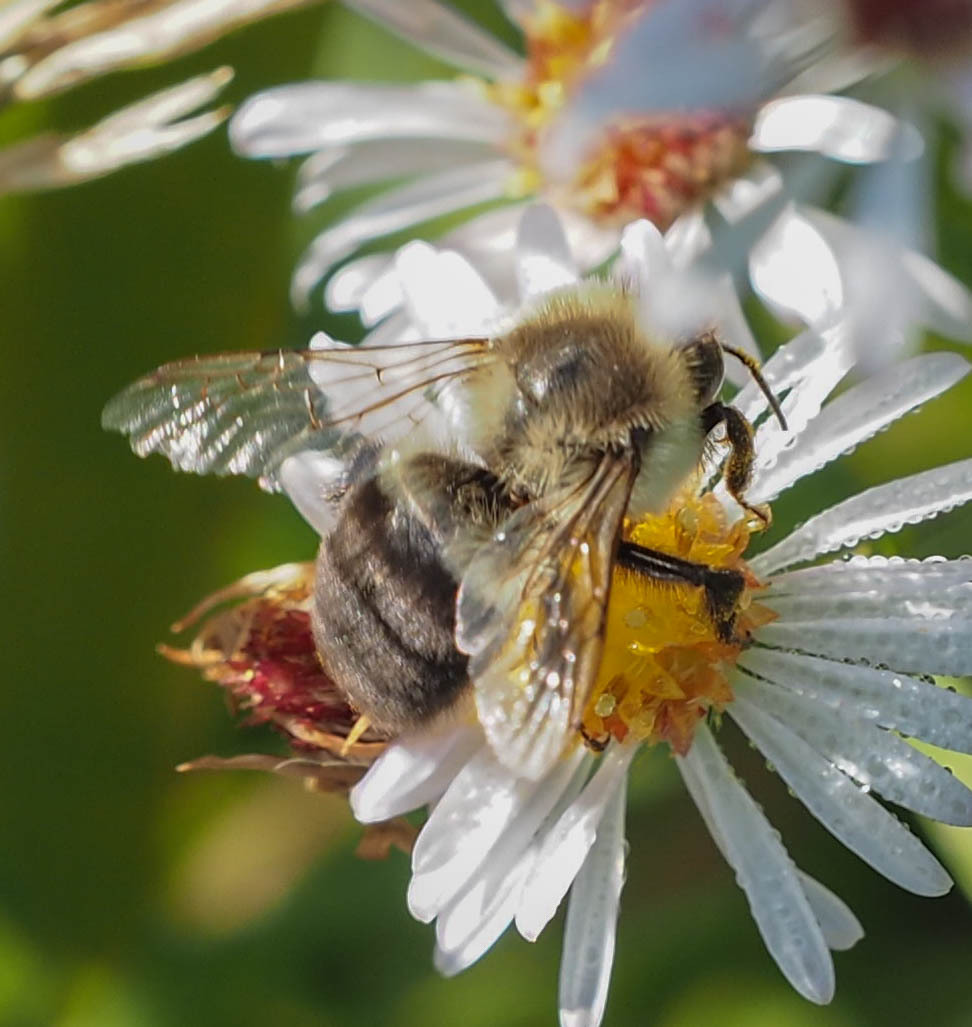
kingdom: Animalia
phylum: Arthropoda
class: Insecta
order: Hymenoptera
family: Apidae
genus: Bombus
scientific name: Bombus impatiens
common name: Common eastern bumble bee
